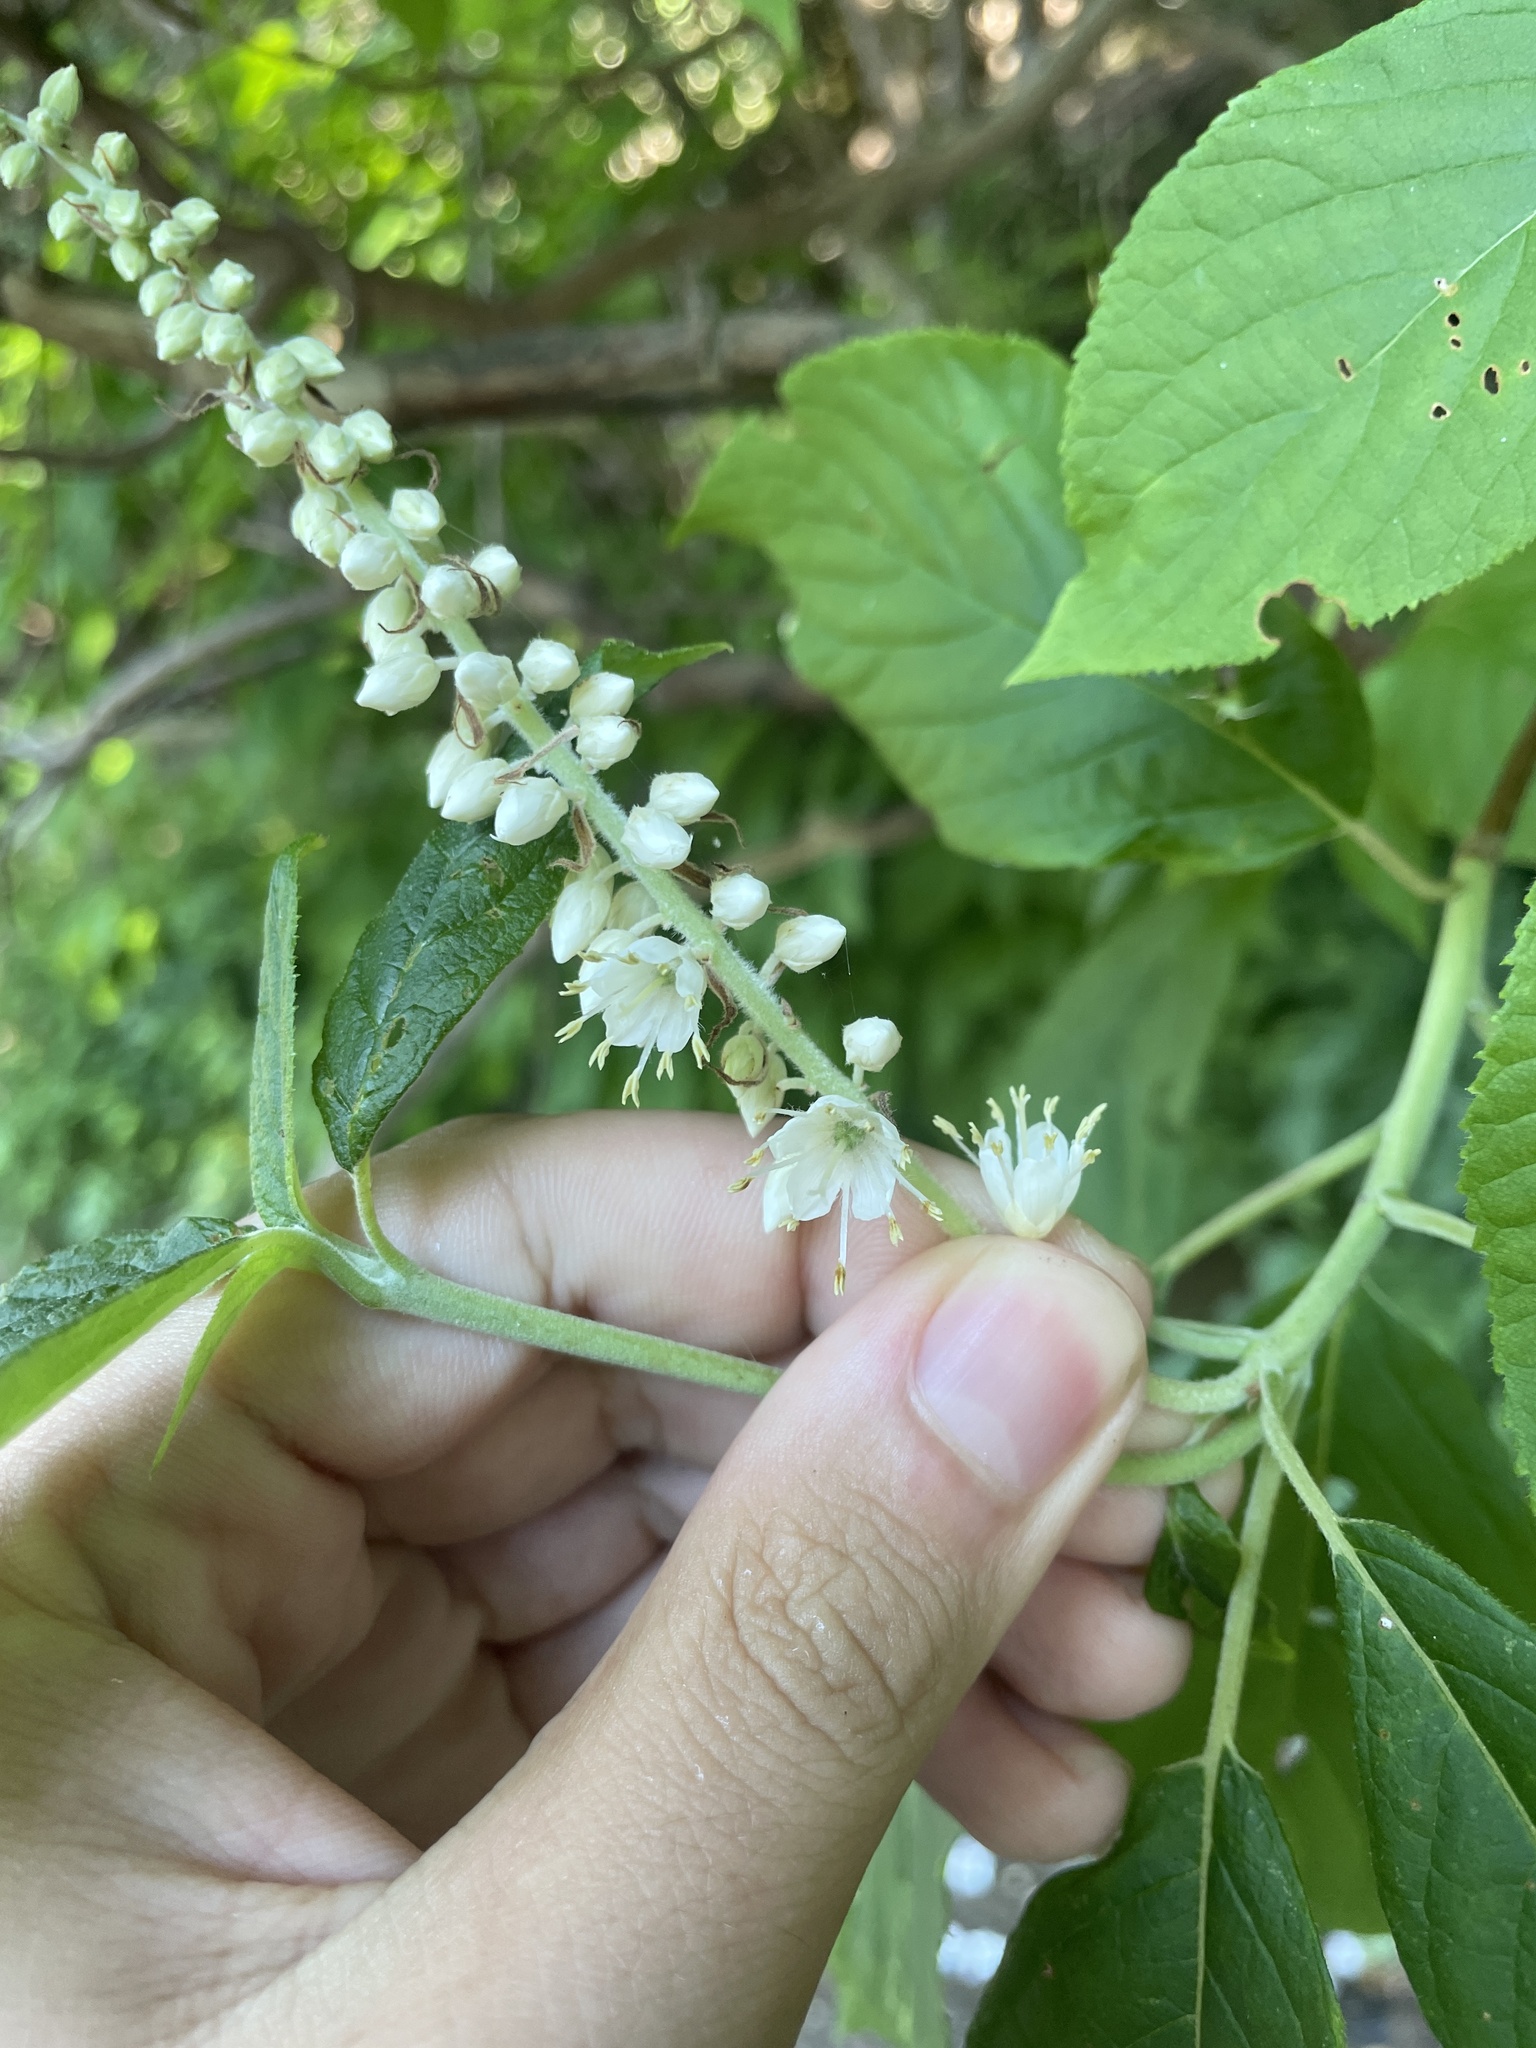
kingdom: Plantae
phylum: Tracheophyta
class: Magnoliopsida
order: Ericales
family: Clethraceae
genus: Clethra
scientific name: Clethra acuminata
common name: Mountain sweet pepperbush
